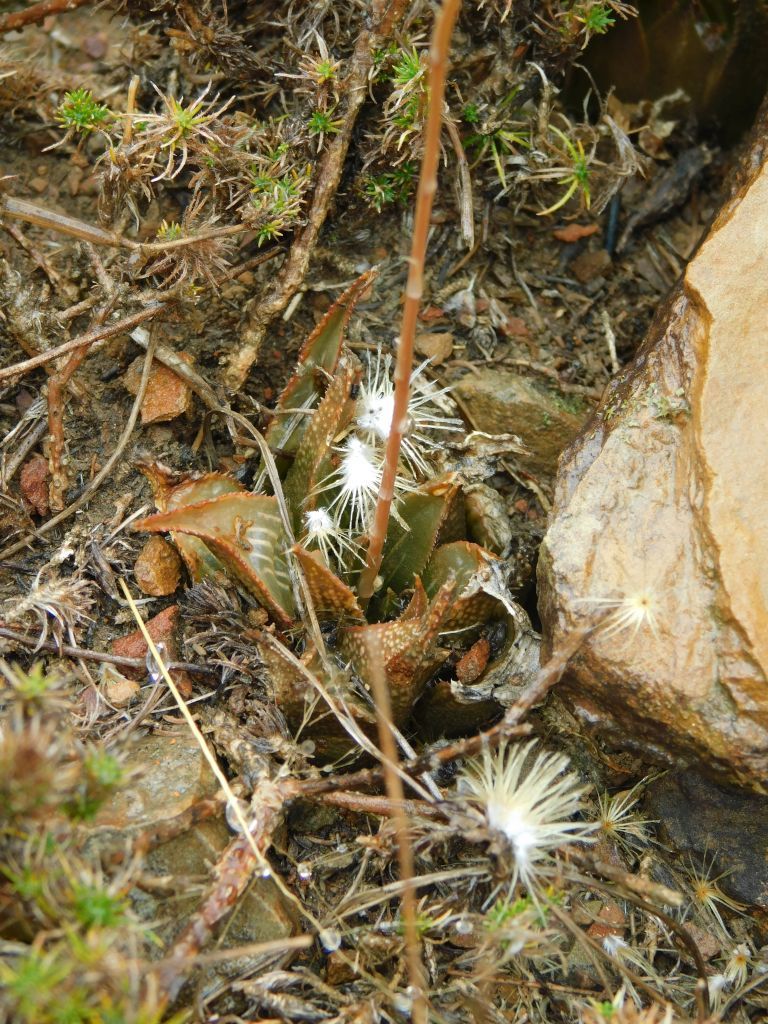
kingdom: Plantae
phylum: Tracheophyta
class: Liliopsida
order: Asparagales
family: Asphodelaceae
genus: Haworthia
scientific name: Haworthia mirabilis
